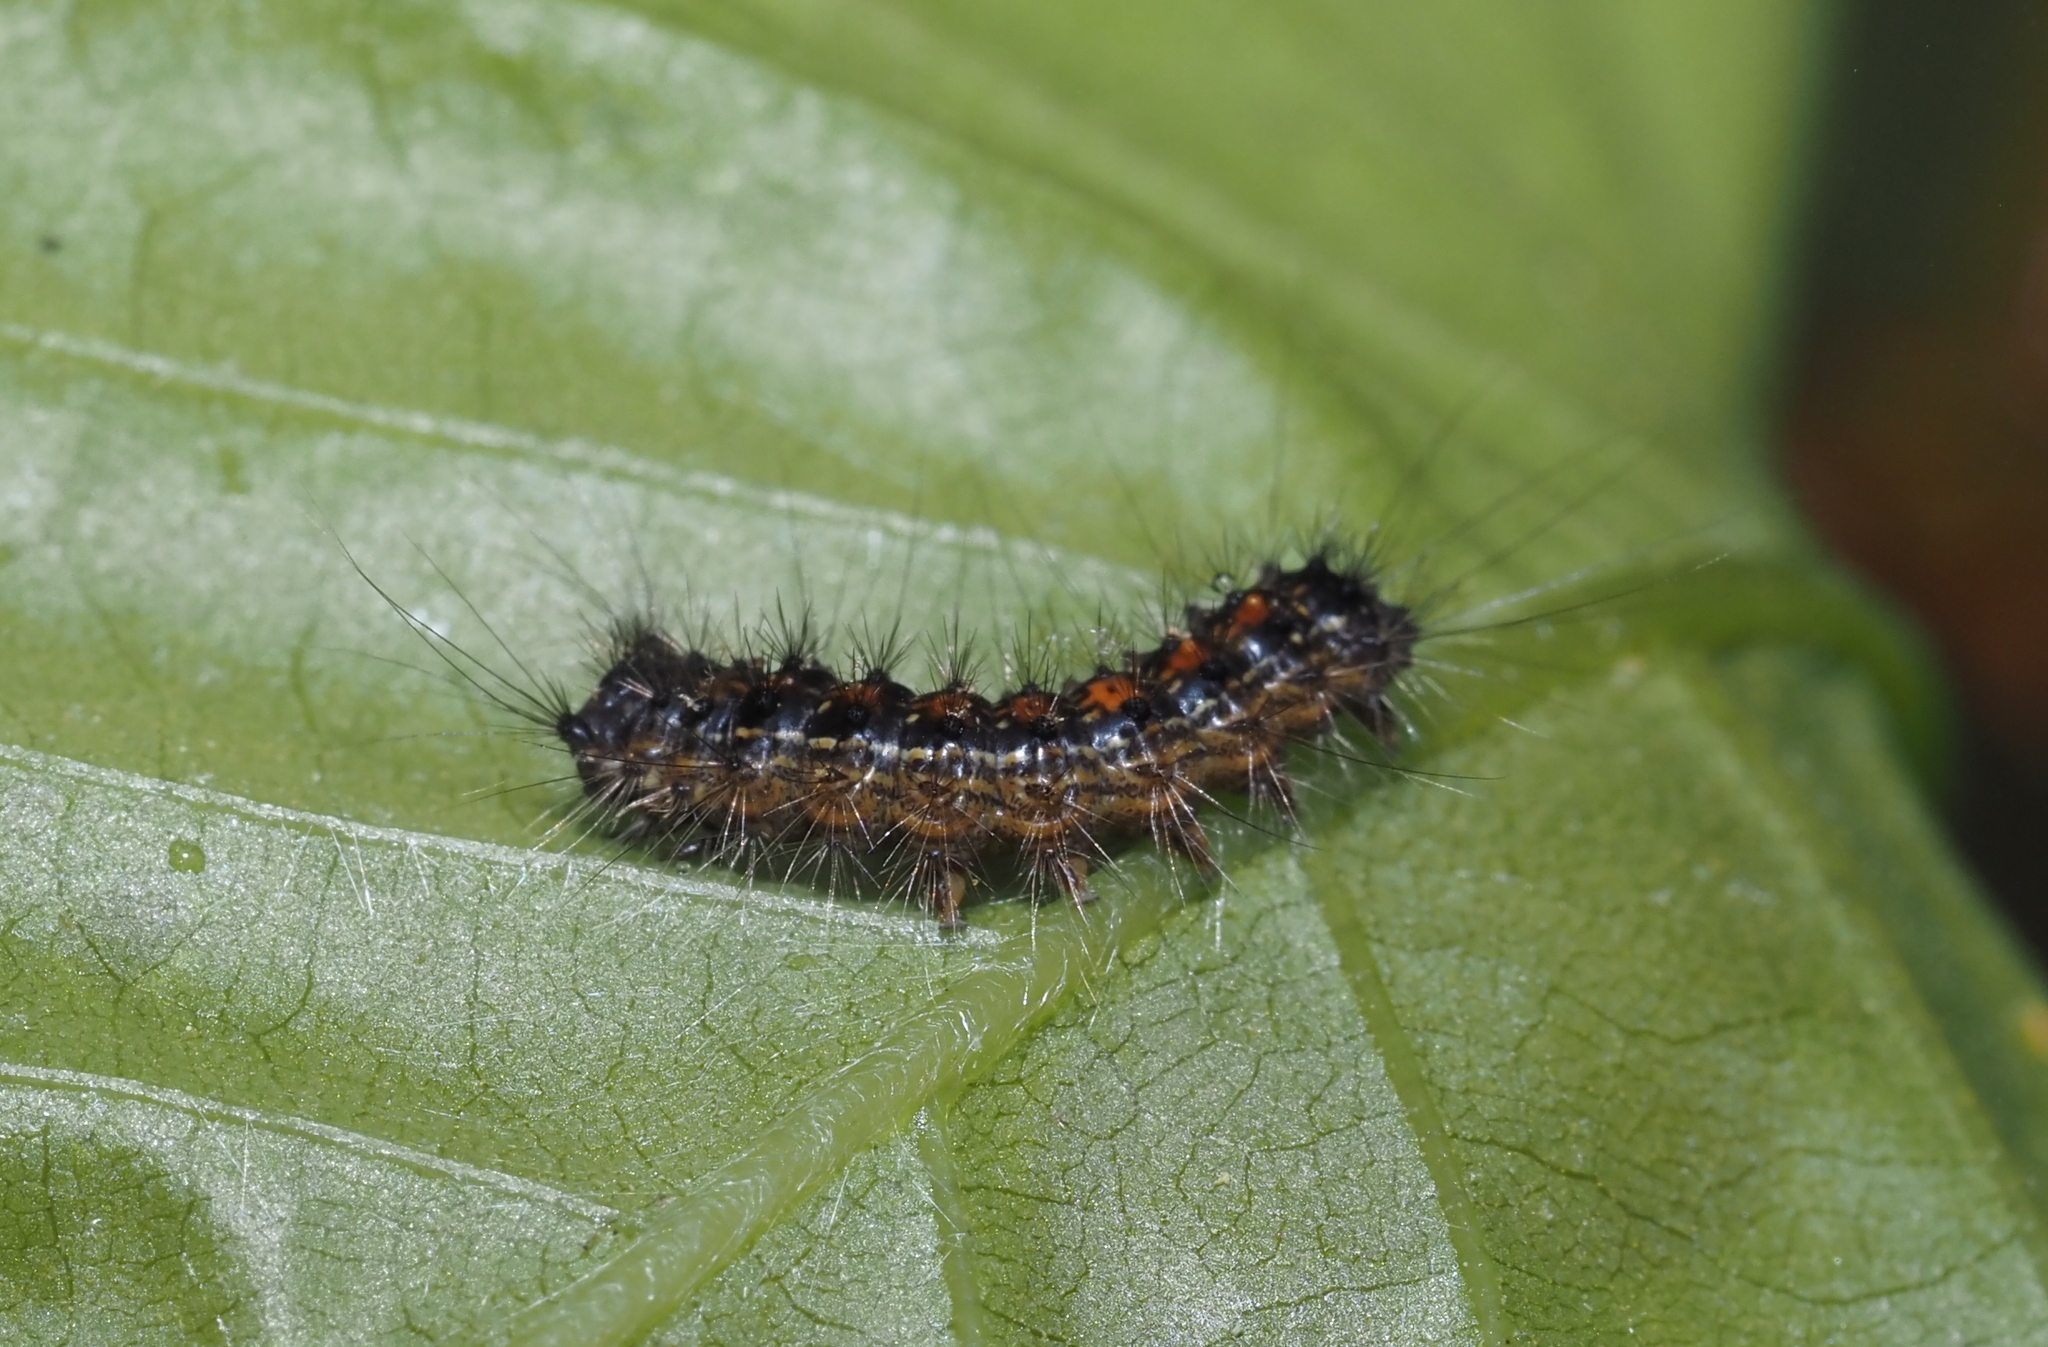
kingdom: Animalia
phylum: Arthropoda
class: Insecta
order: Lepidoptera
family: Erebidae
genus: Lymantria
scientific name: Lymantria dispar
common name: Gypsy moth
